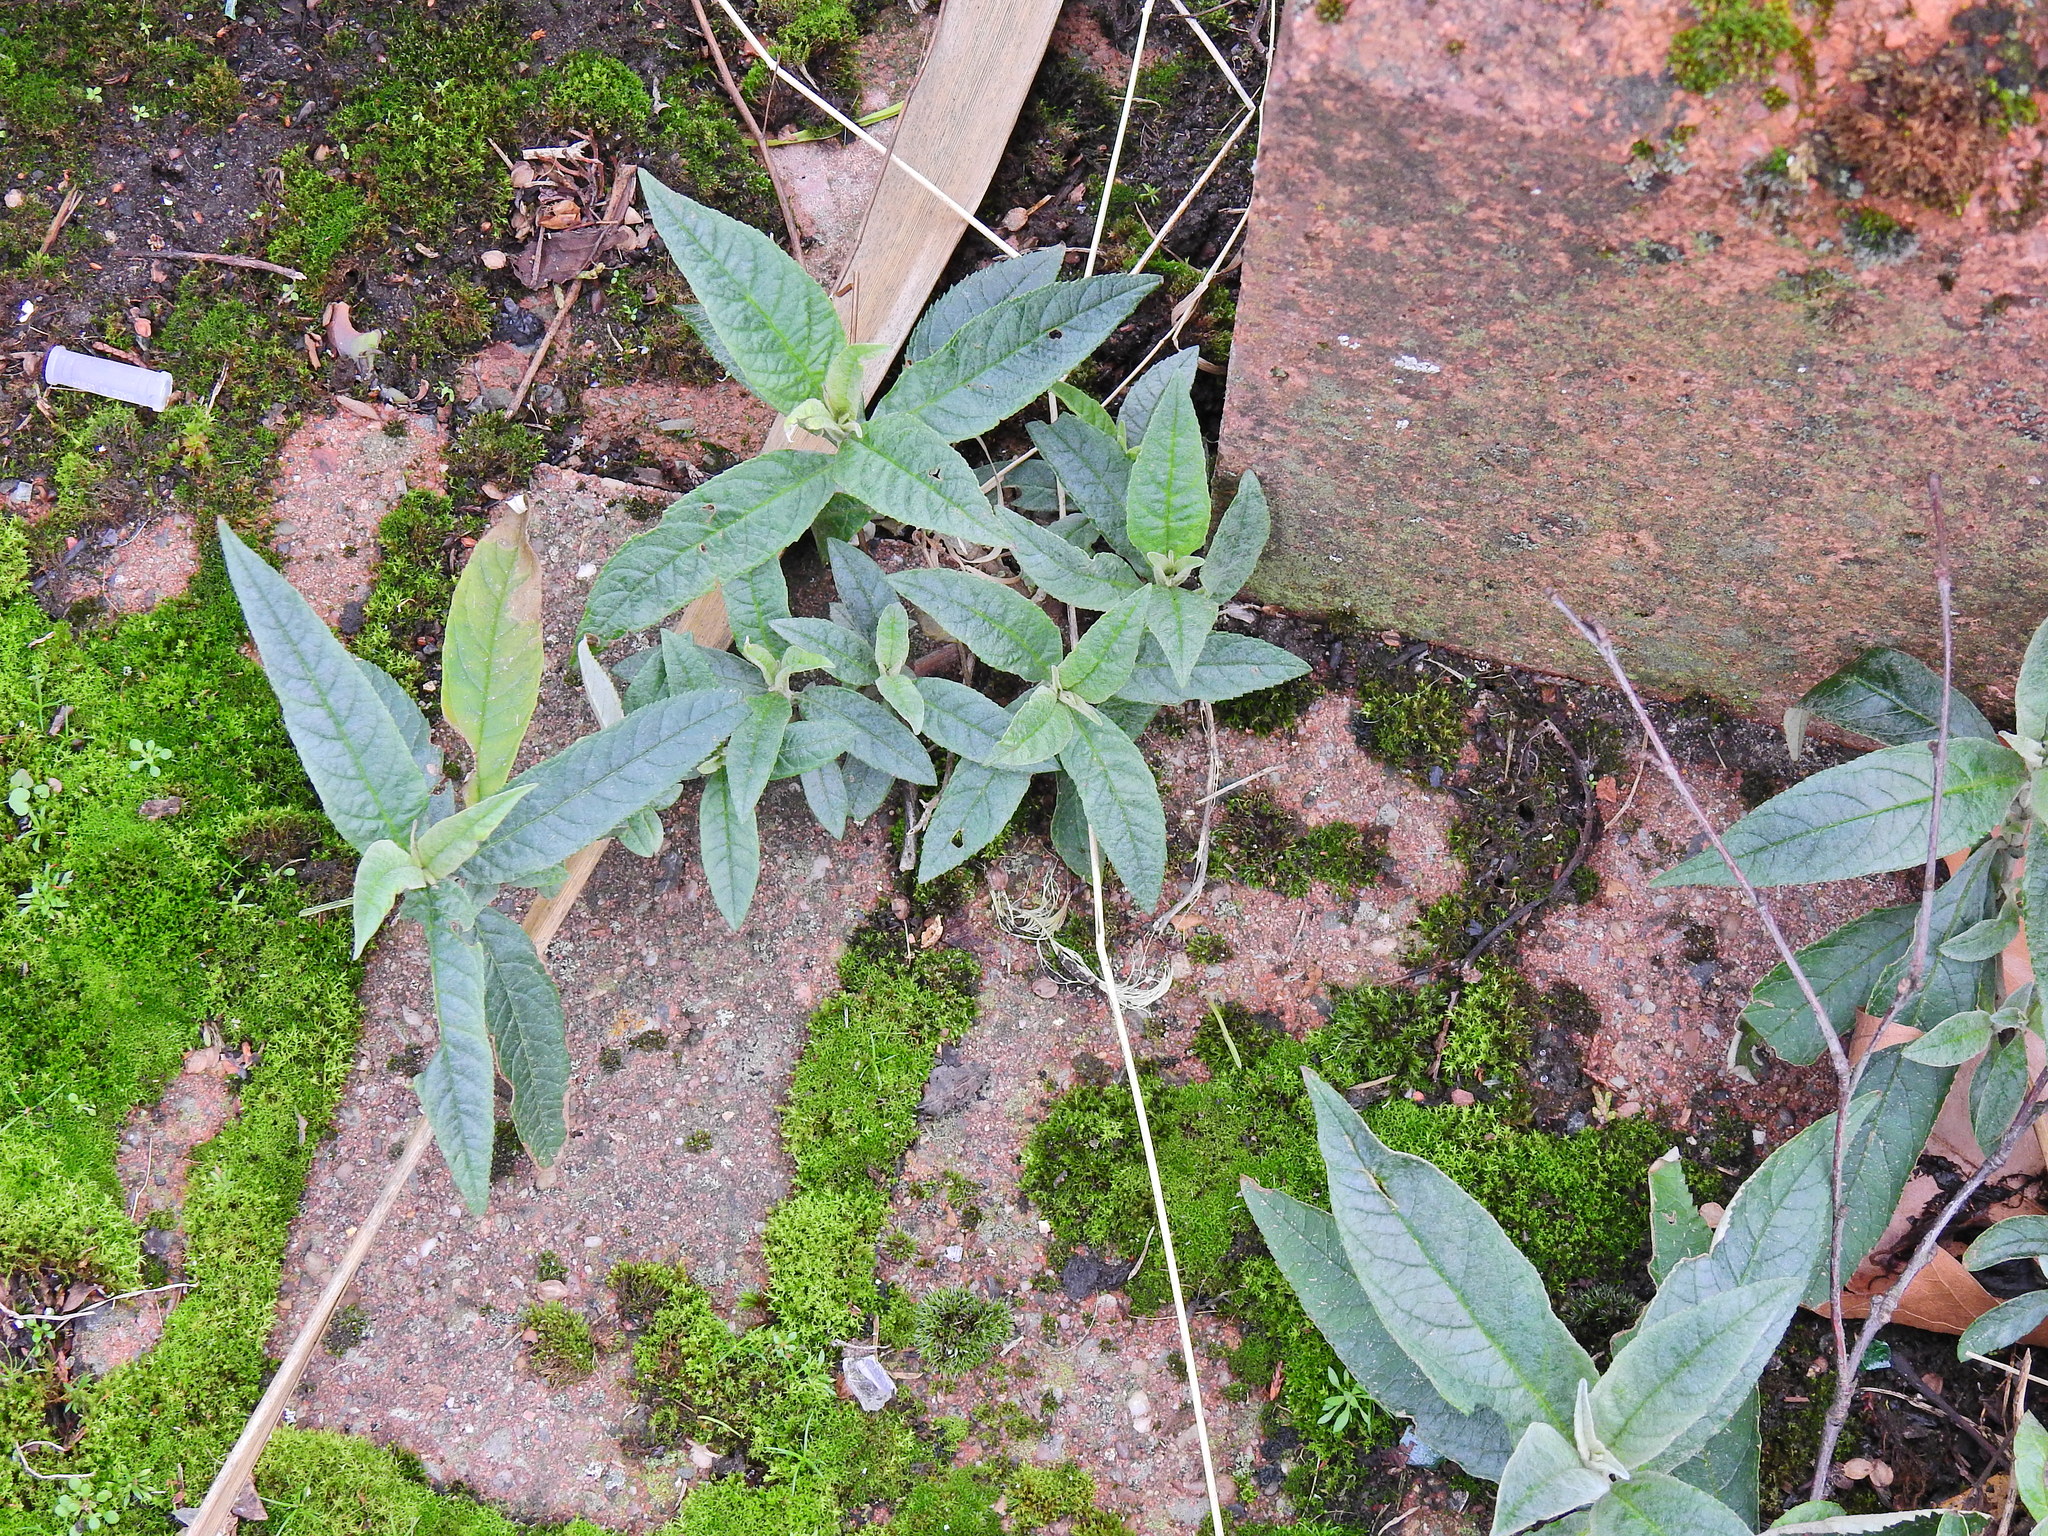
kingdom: Plantae
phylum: Tracheophyta
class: Magnoliopsida
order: Lamiales
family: Scrophulariaceae
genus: Buddleja
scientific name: Buddleja davidii
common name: Butterfly-bush
